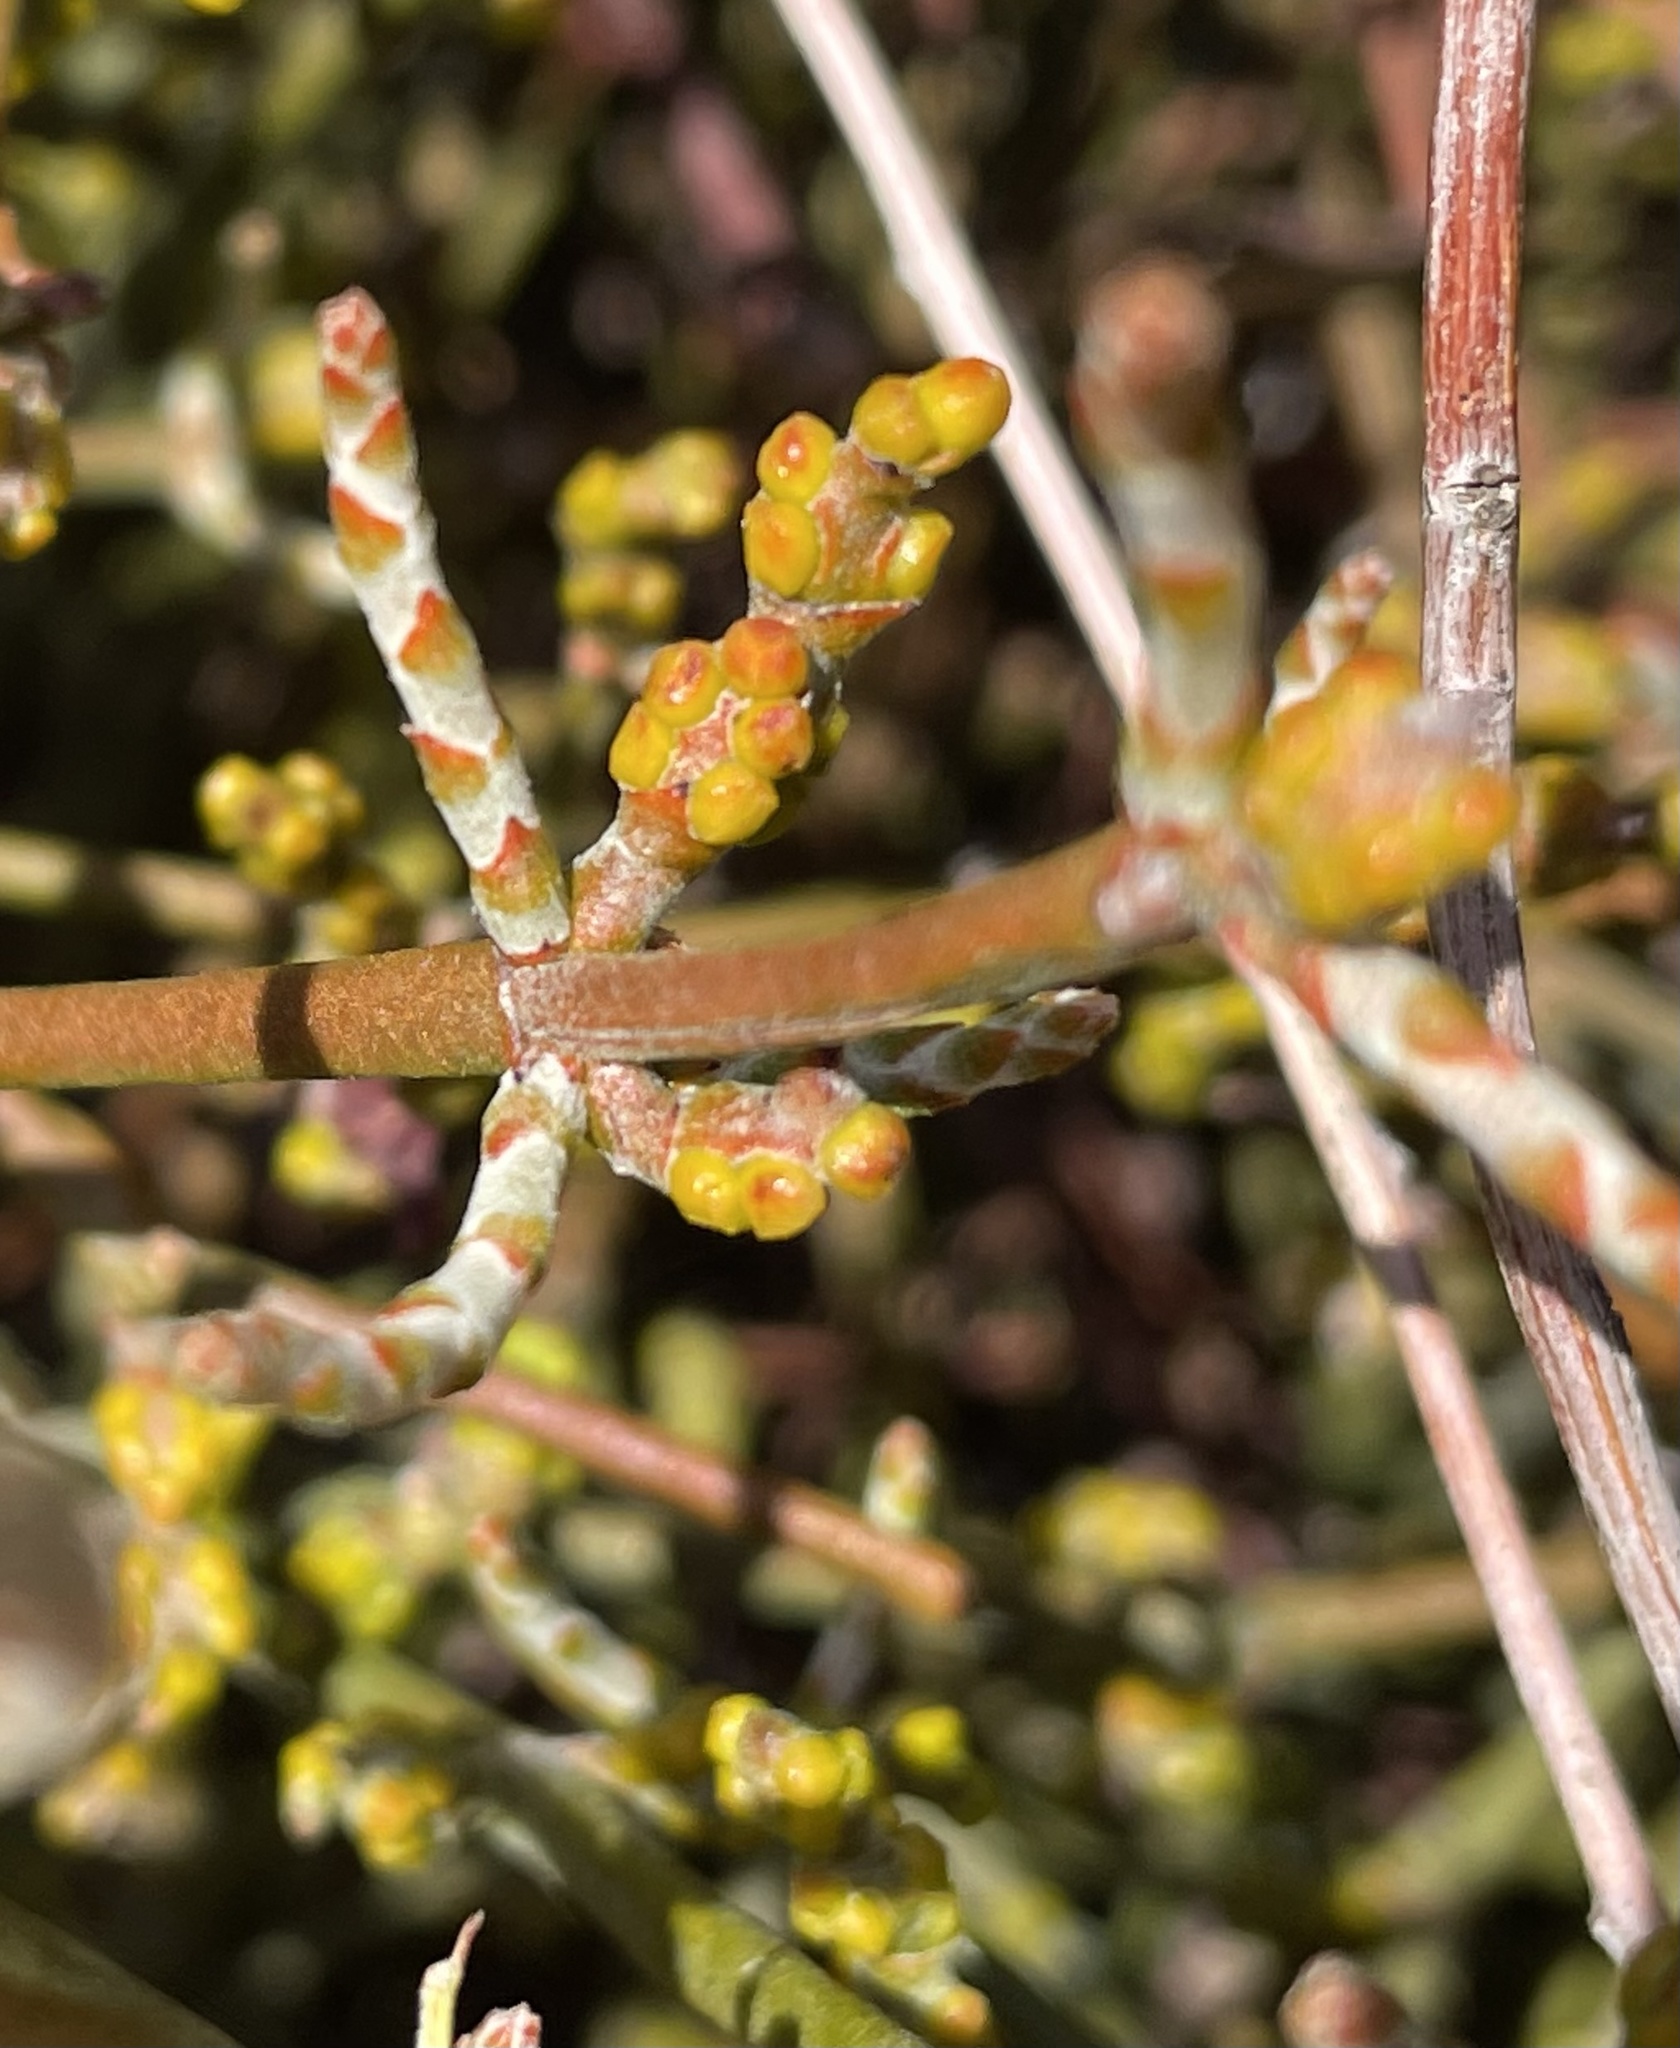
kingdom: Plantae
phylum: Tracheophyta
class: Magnoliopsida
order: Santalales
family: Viscaceae
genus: Phoradendron
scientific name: Phoradendron californicum
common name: Acacia mistletoe
